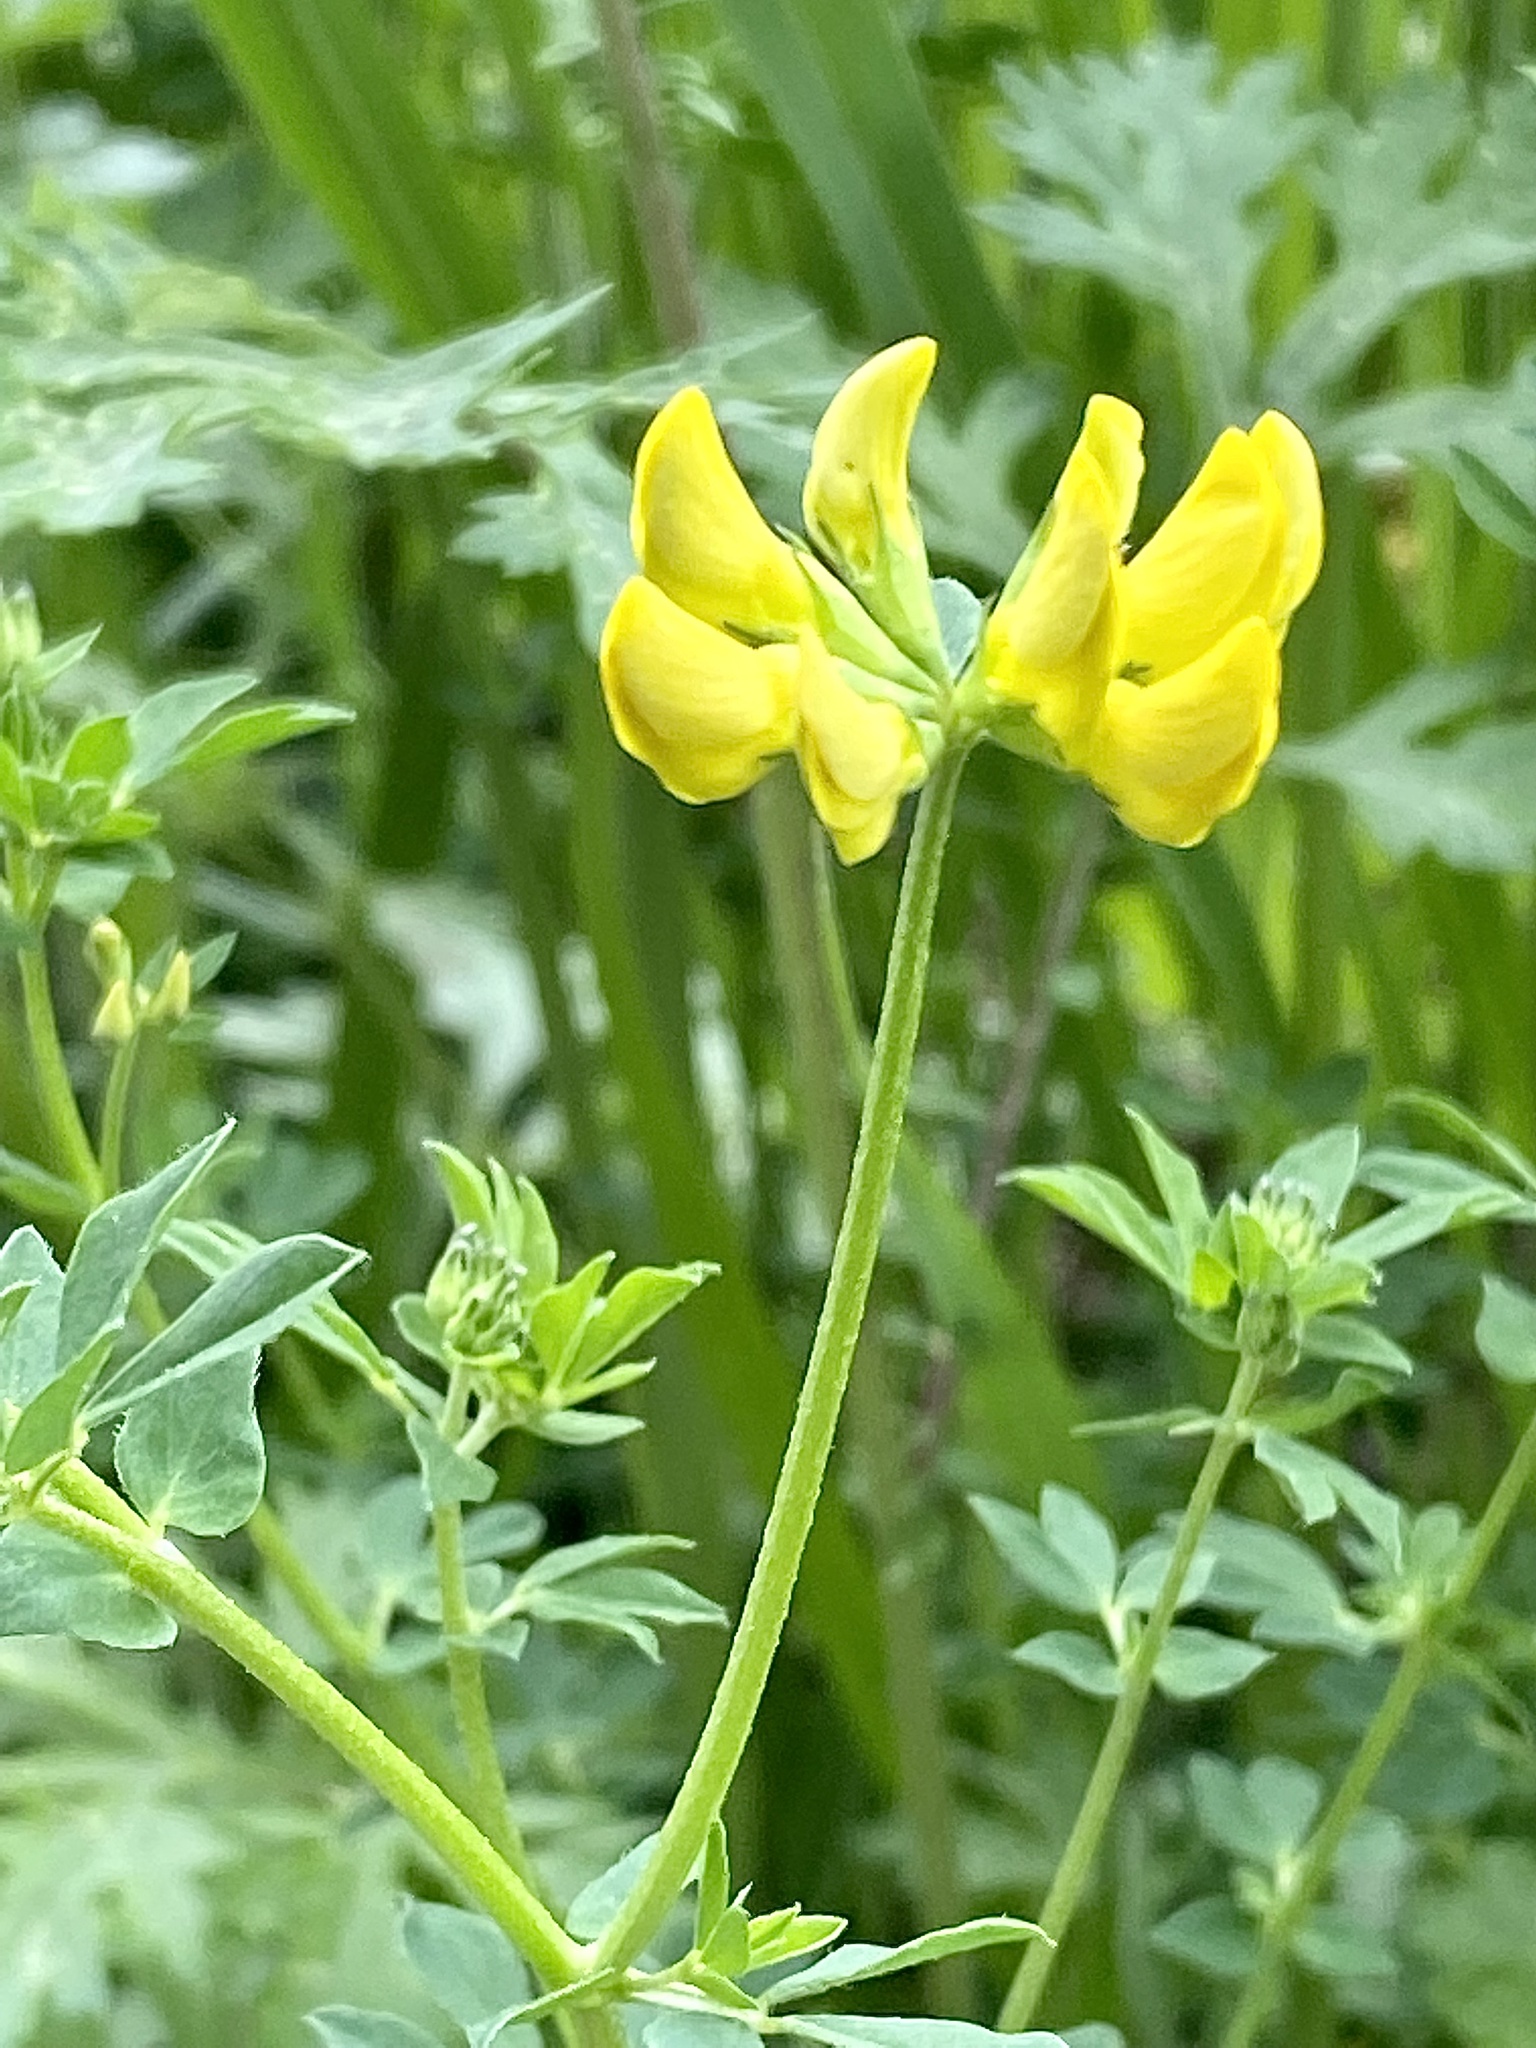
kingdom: Plantae
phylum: Tracheophyta
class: Magnoliopsida
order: Fabales
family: Fabaceae
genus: Lotus
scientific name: Lotus corniculatus
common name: Common bird's-foot-trefoil
